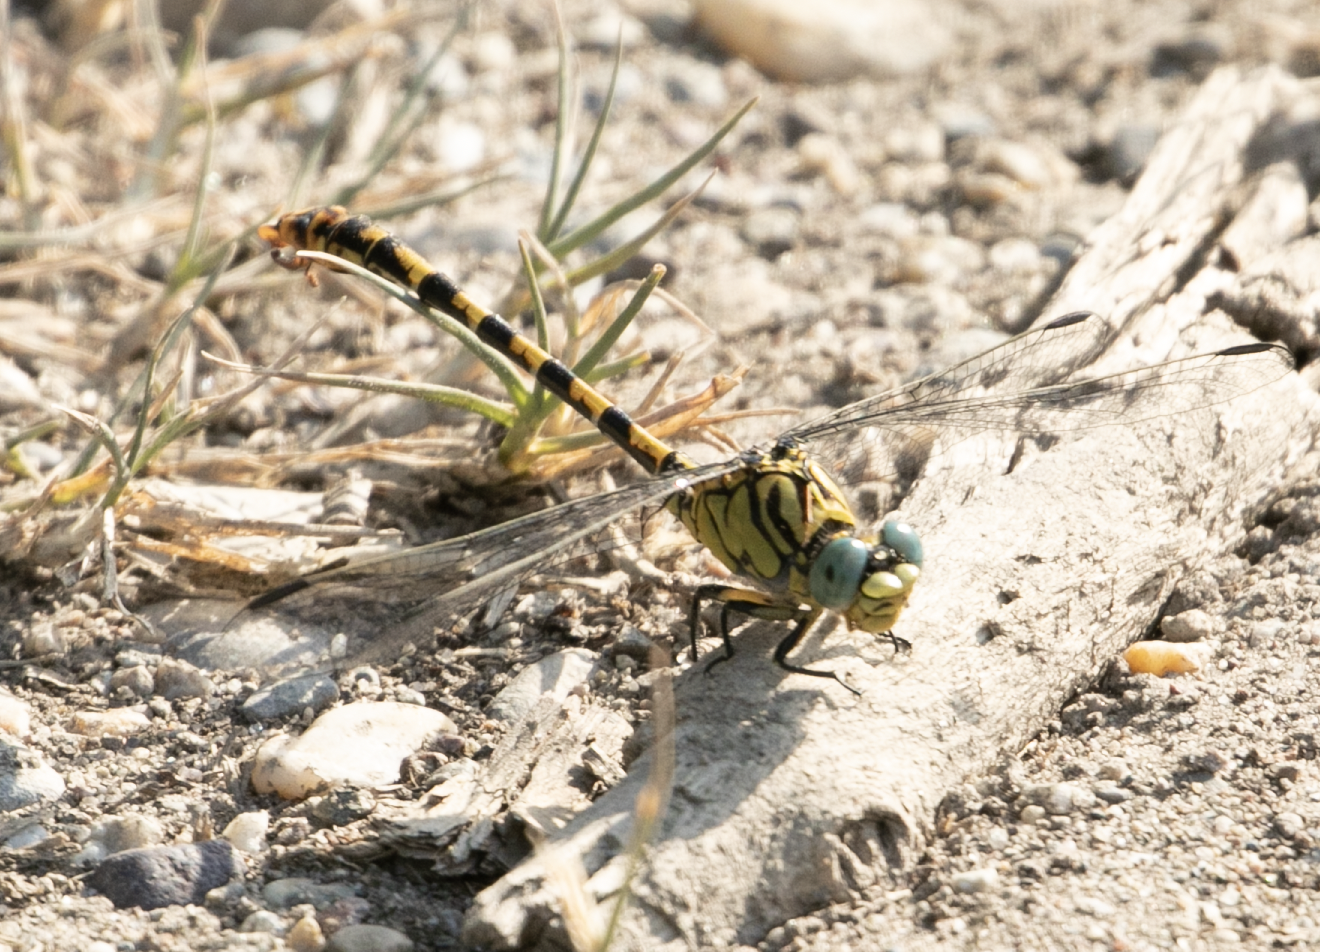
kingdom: Animalia
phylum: Arthropoda
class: Insecta
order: Odonata
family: Gomphidae
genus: Onychogomphus
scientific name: Onychogomphus forcipatus
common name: Small pincertail
